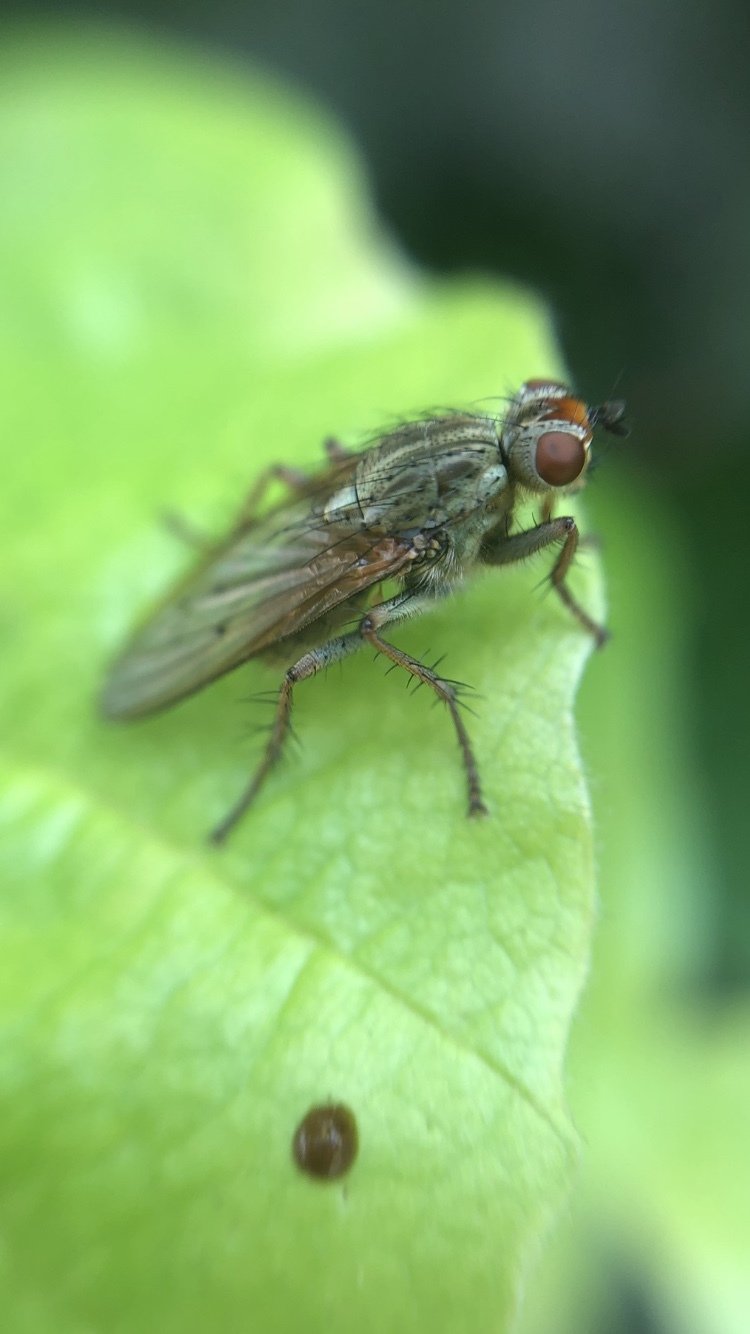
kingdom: Animalia
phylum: Arthropoda
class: Insecta
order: Diptera
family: Scathophagidae
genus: Scathophaga
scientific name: Scathophaga stercoraria
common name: Yellow dung fly
